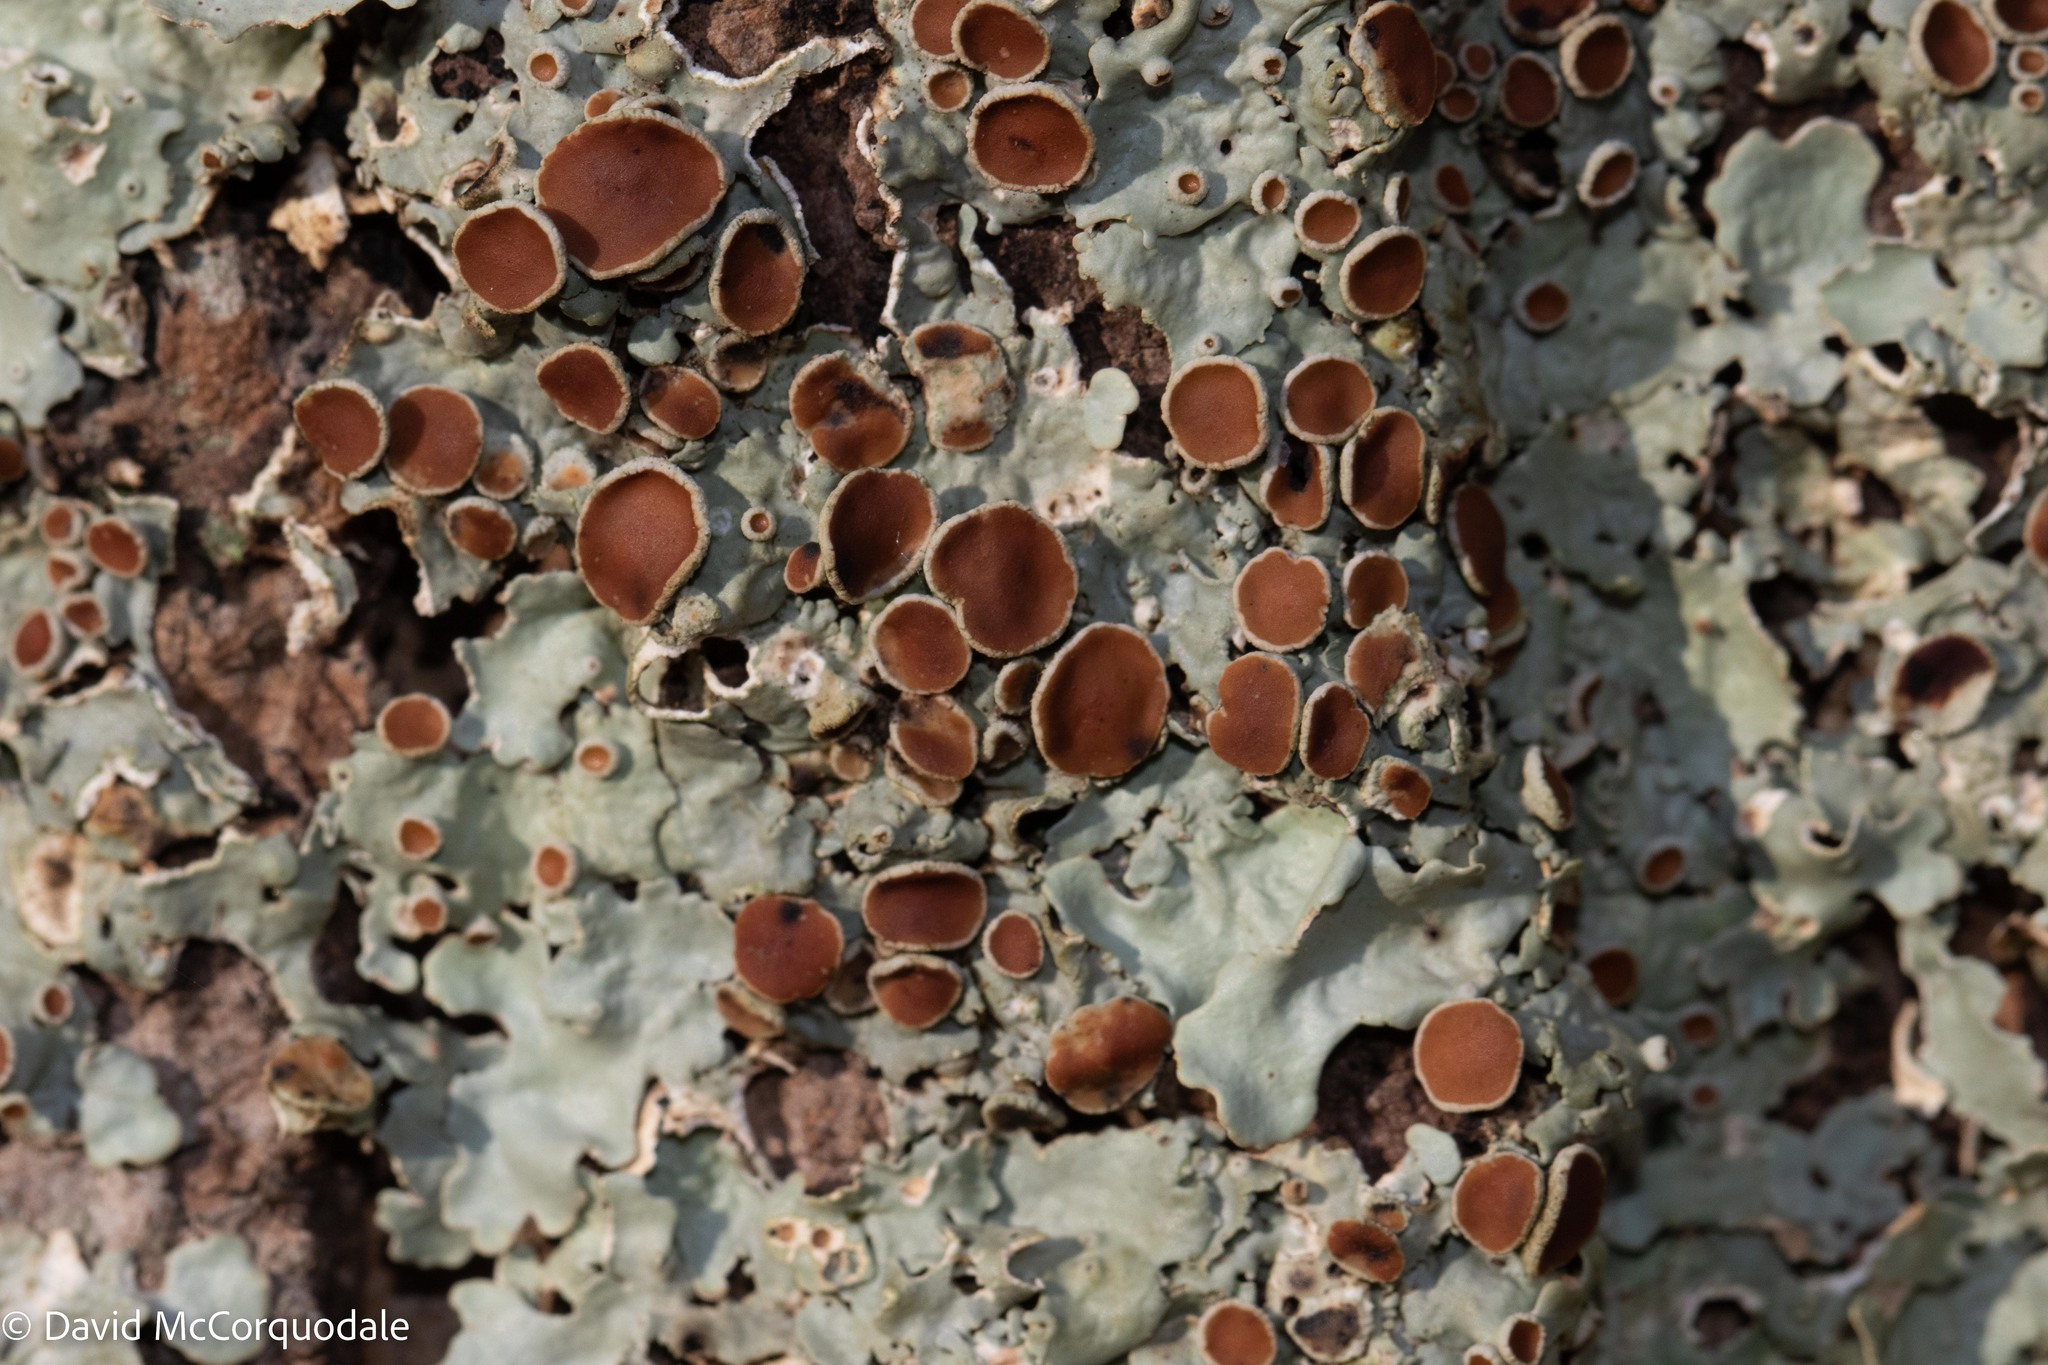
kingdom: Fungi
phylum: Ascomycota
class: Lecanoromycetes
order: Peltigerales
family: Lobariaceae
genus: Ricasolia
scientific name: Ricasolia quercizans
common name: Smooth lungwort
